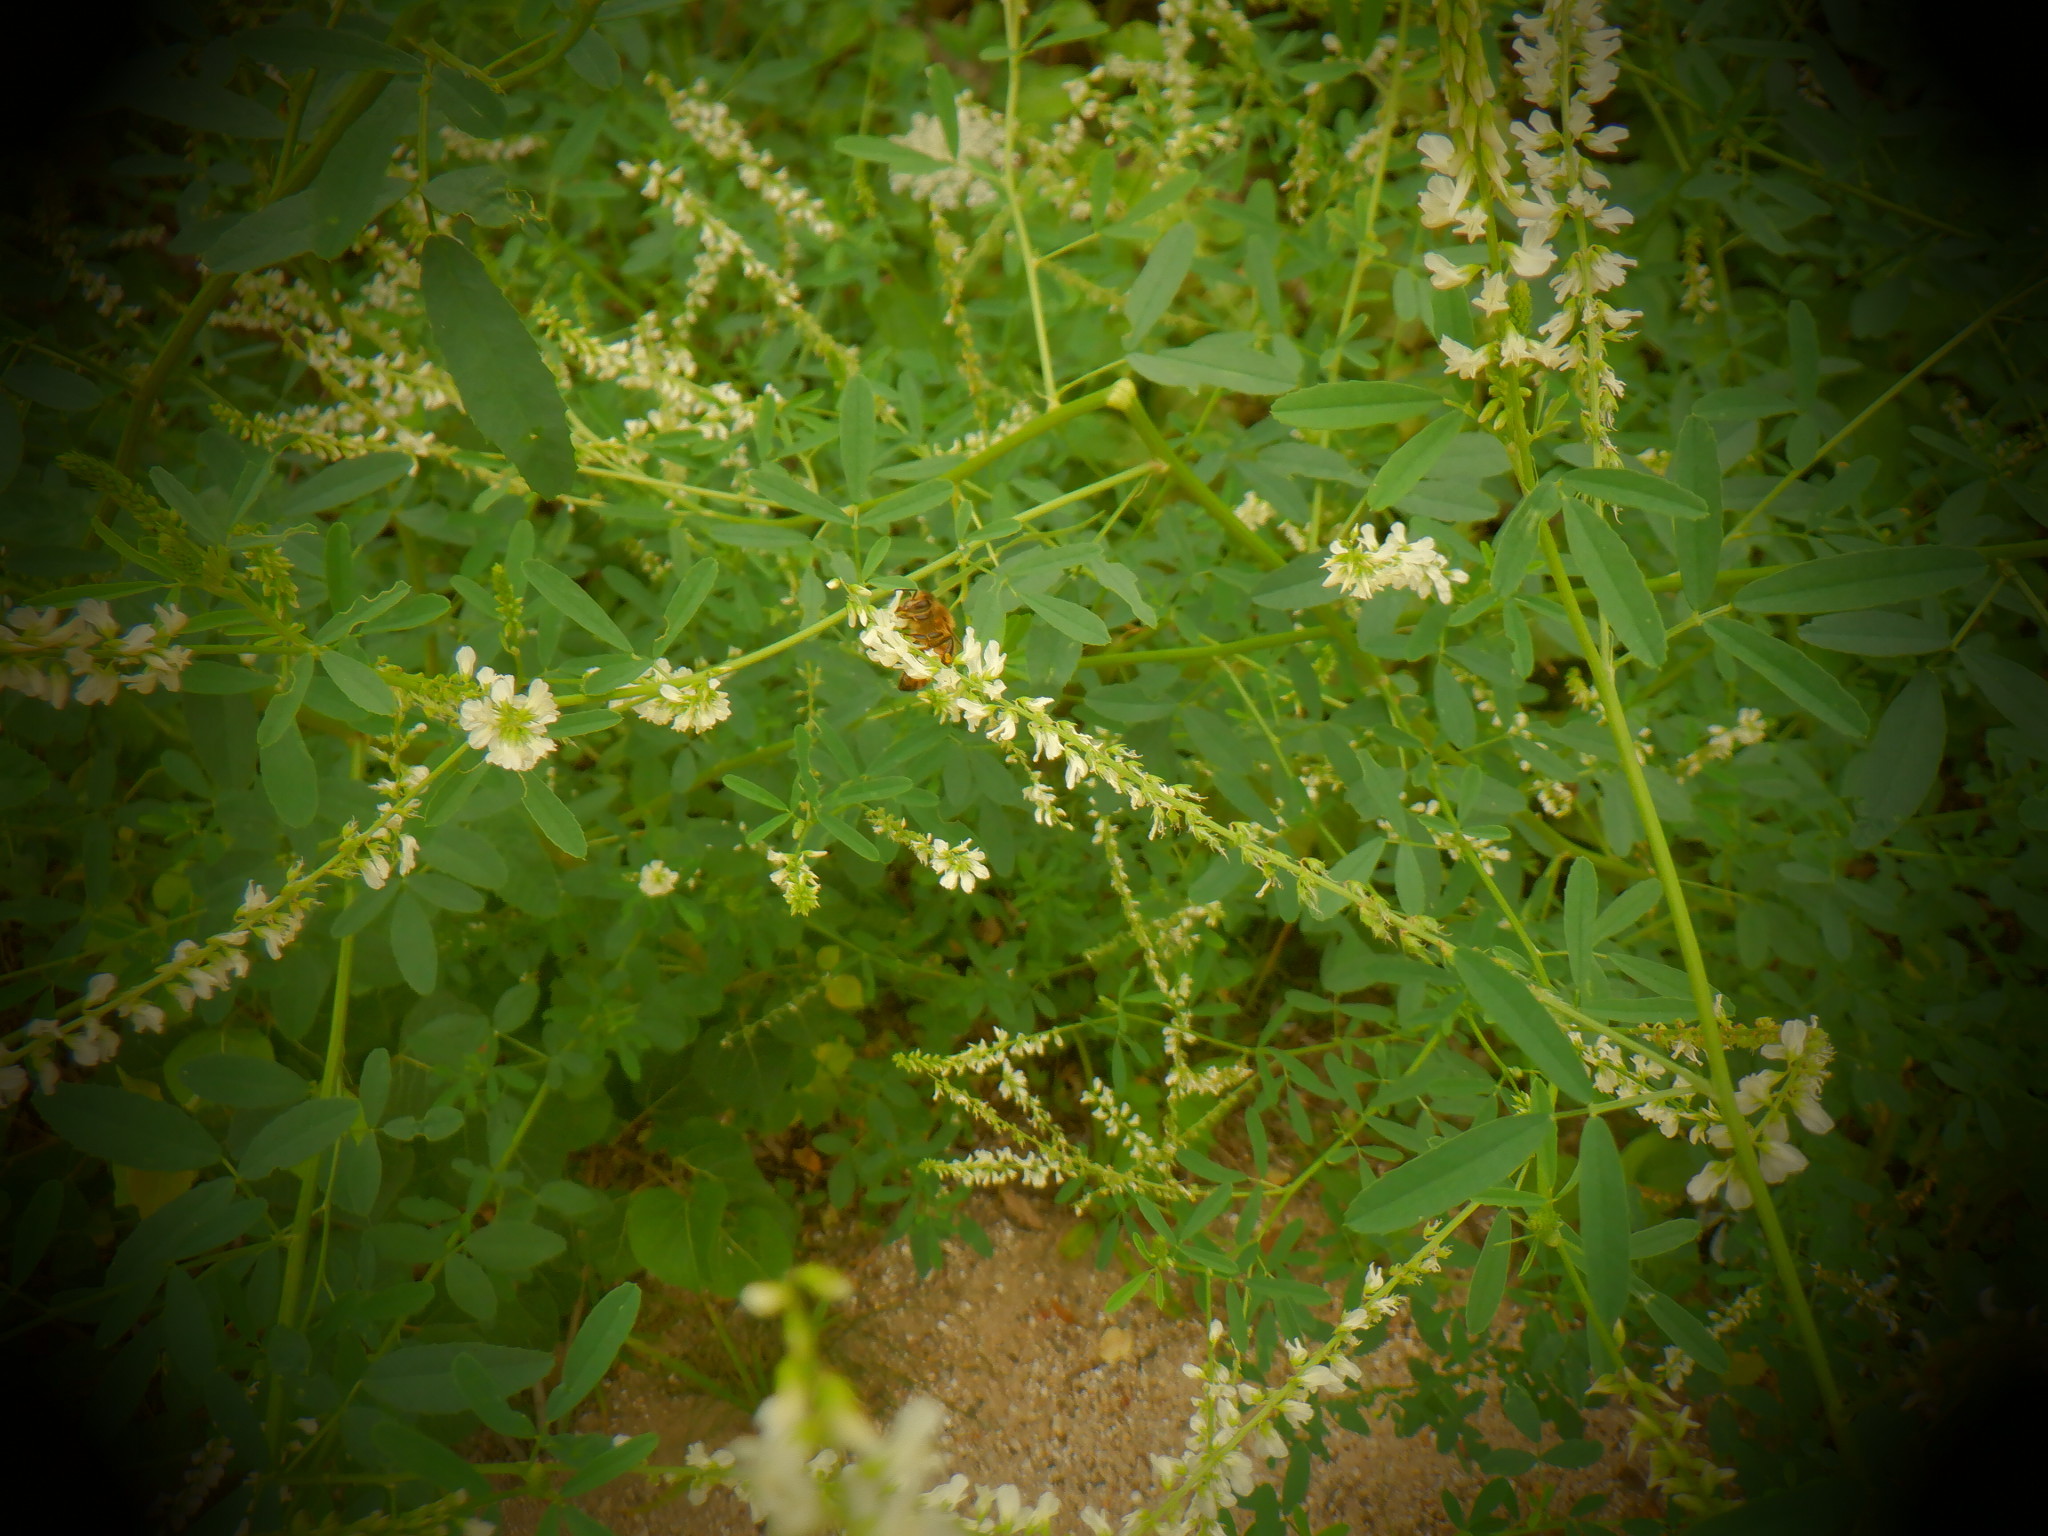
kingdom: Animalia
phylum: Arthropoda
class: Insecta
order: Hymenoptera
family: Apidae
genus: Apis
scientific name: Apis mellifera
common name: Honey bee
